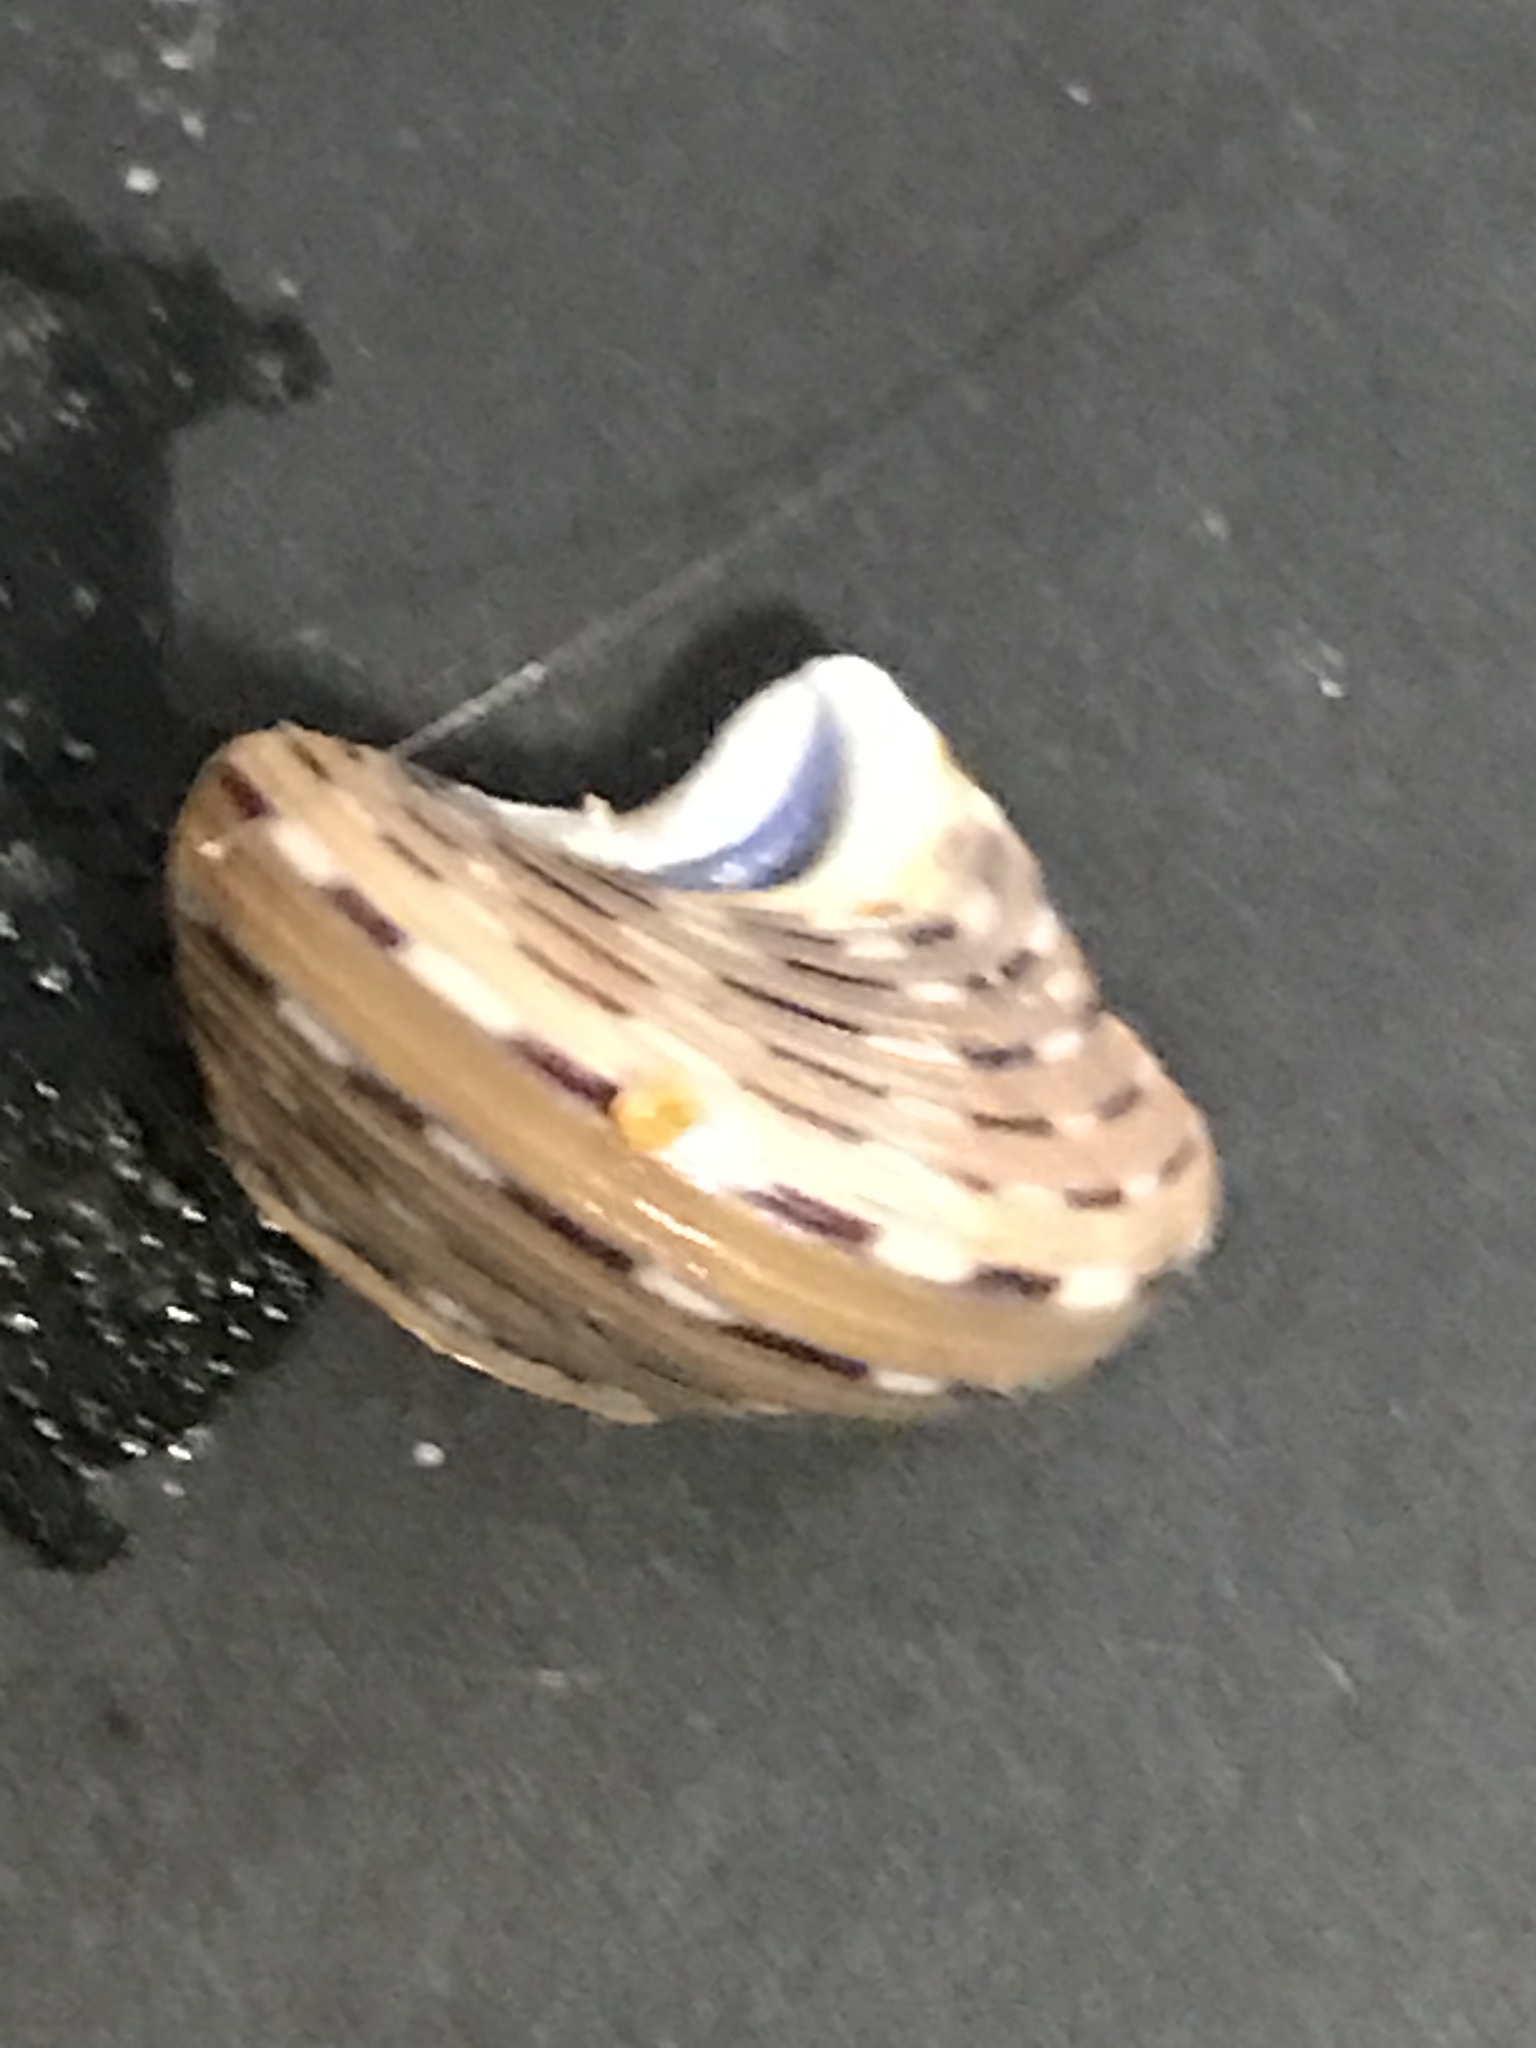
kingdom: Animalia
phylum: Mollusca
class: Gastropoda
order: Trochida
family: Calliostomatidae
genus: Calliostoma
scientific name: Calliostoma tricolor
